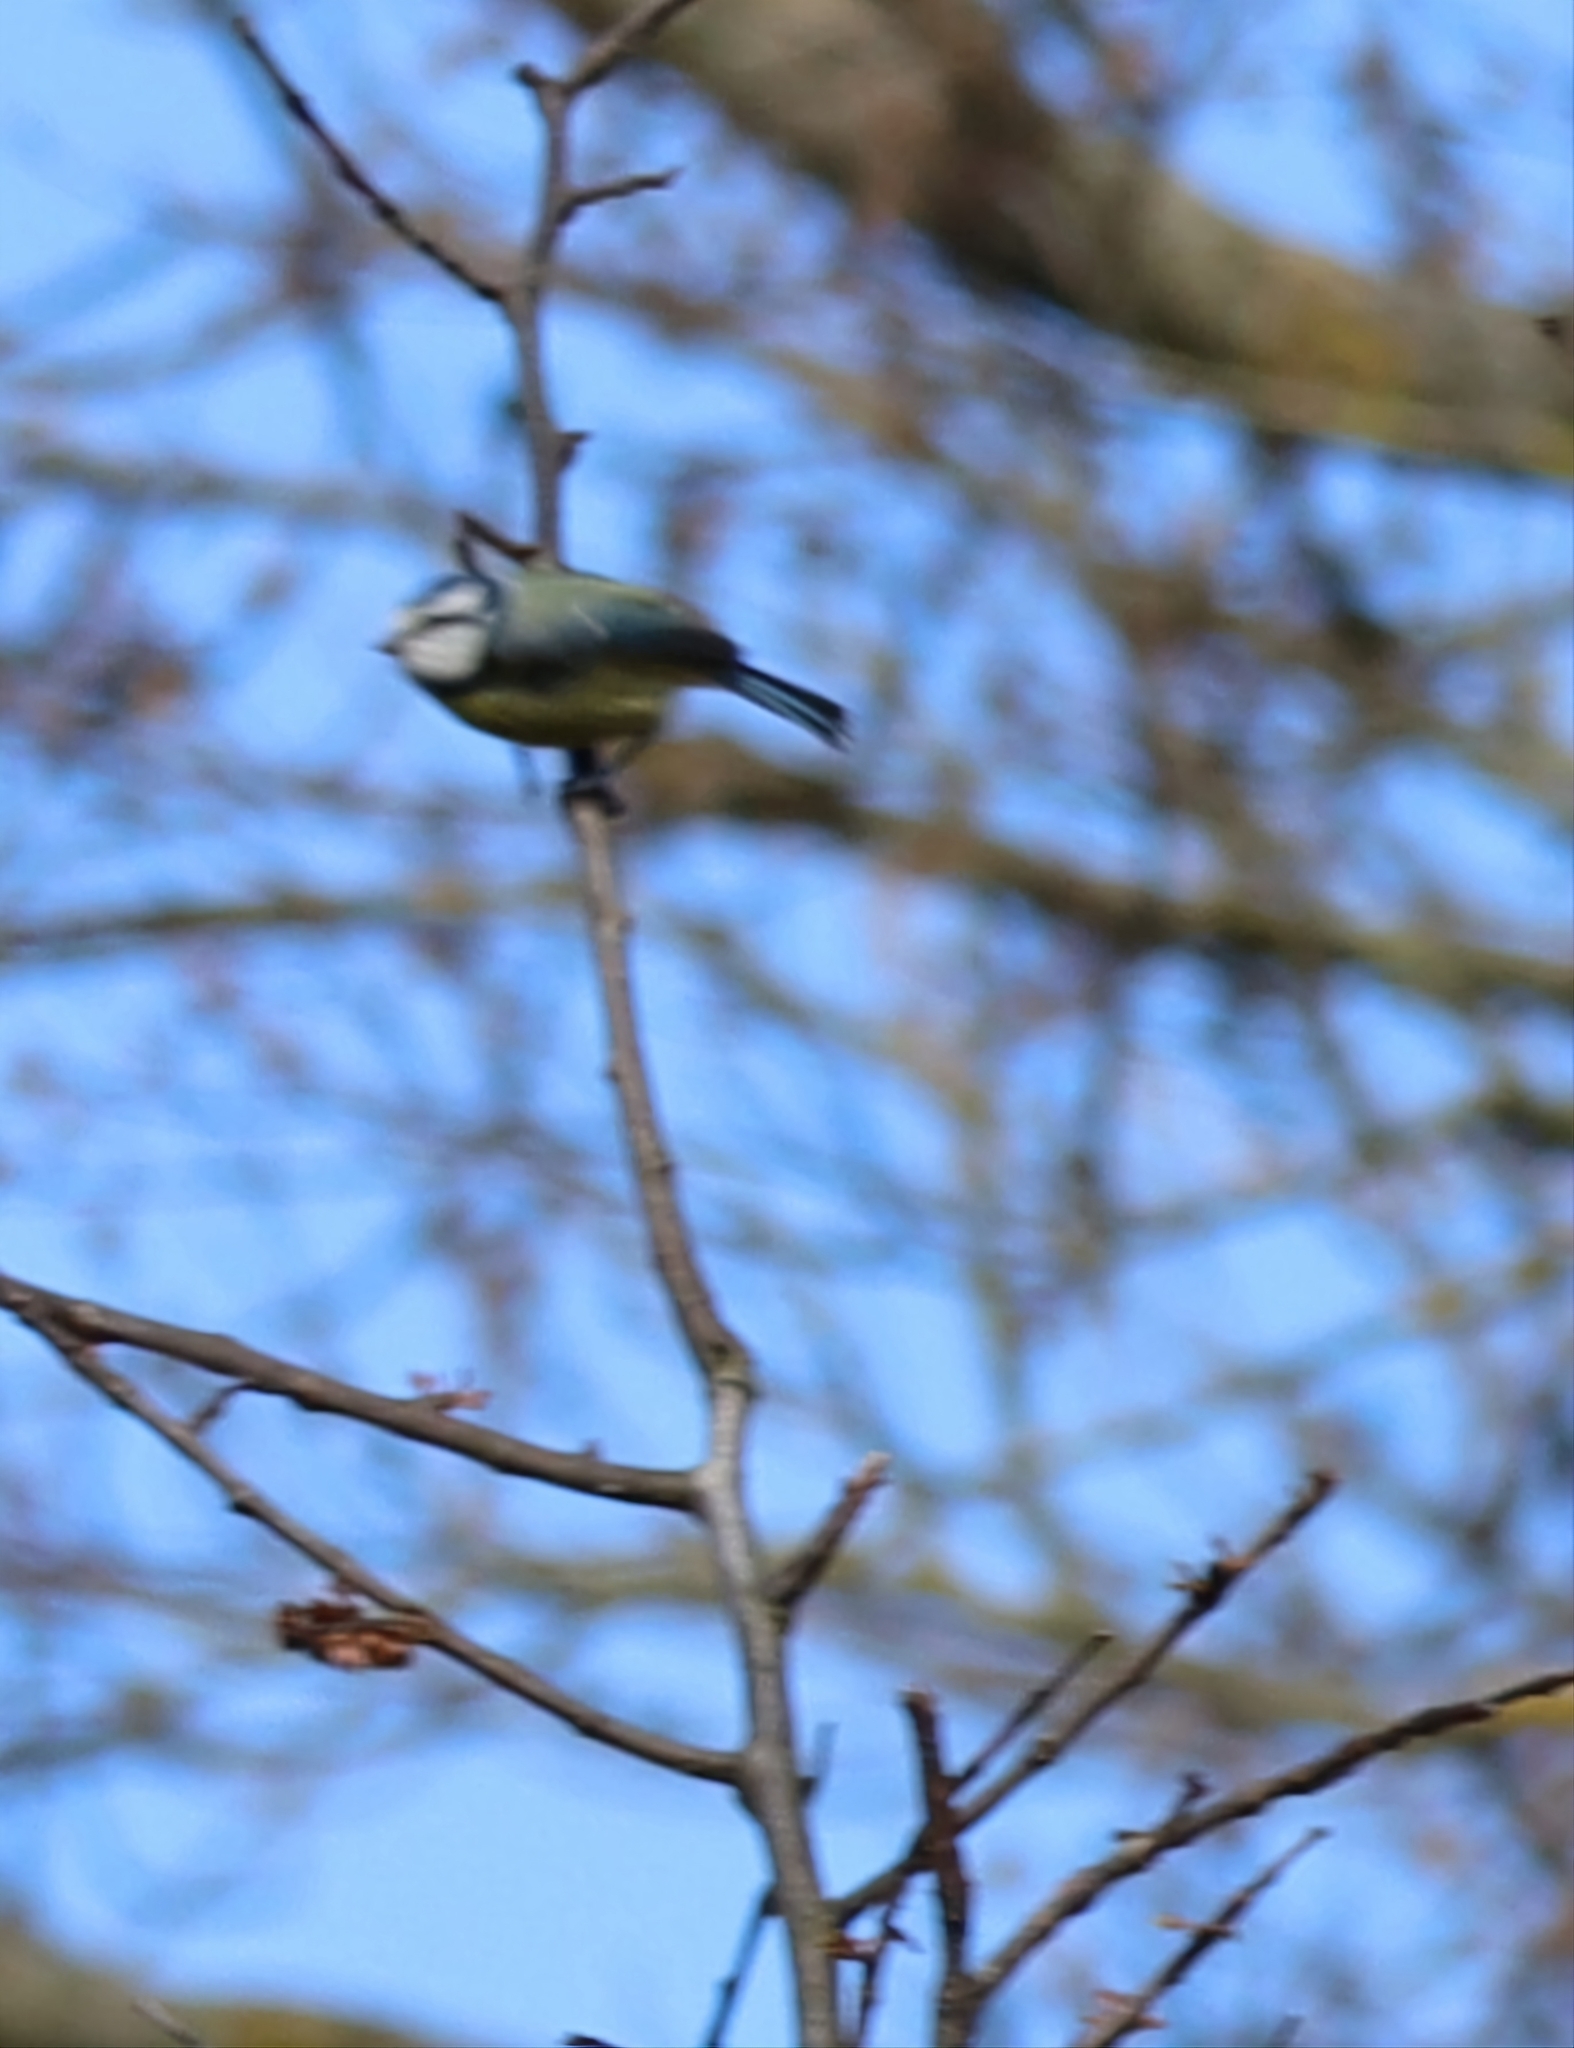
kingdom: Animalia
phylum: Chordata
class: Aves
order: Passeriformes
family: Paridae
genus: Cyanistes
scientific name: Cyanistes caeruleus
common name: Eurasian blue tit
